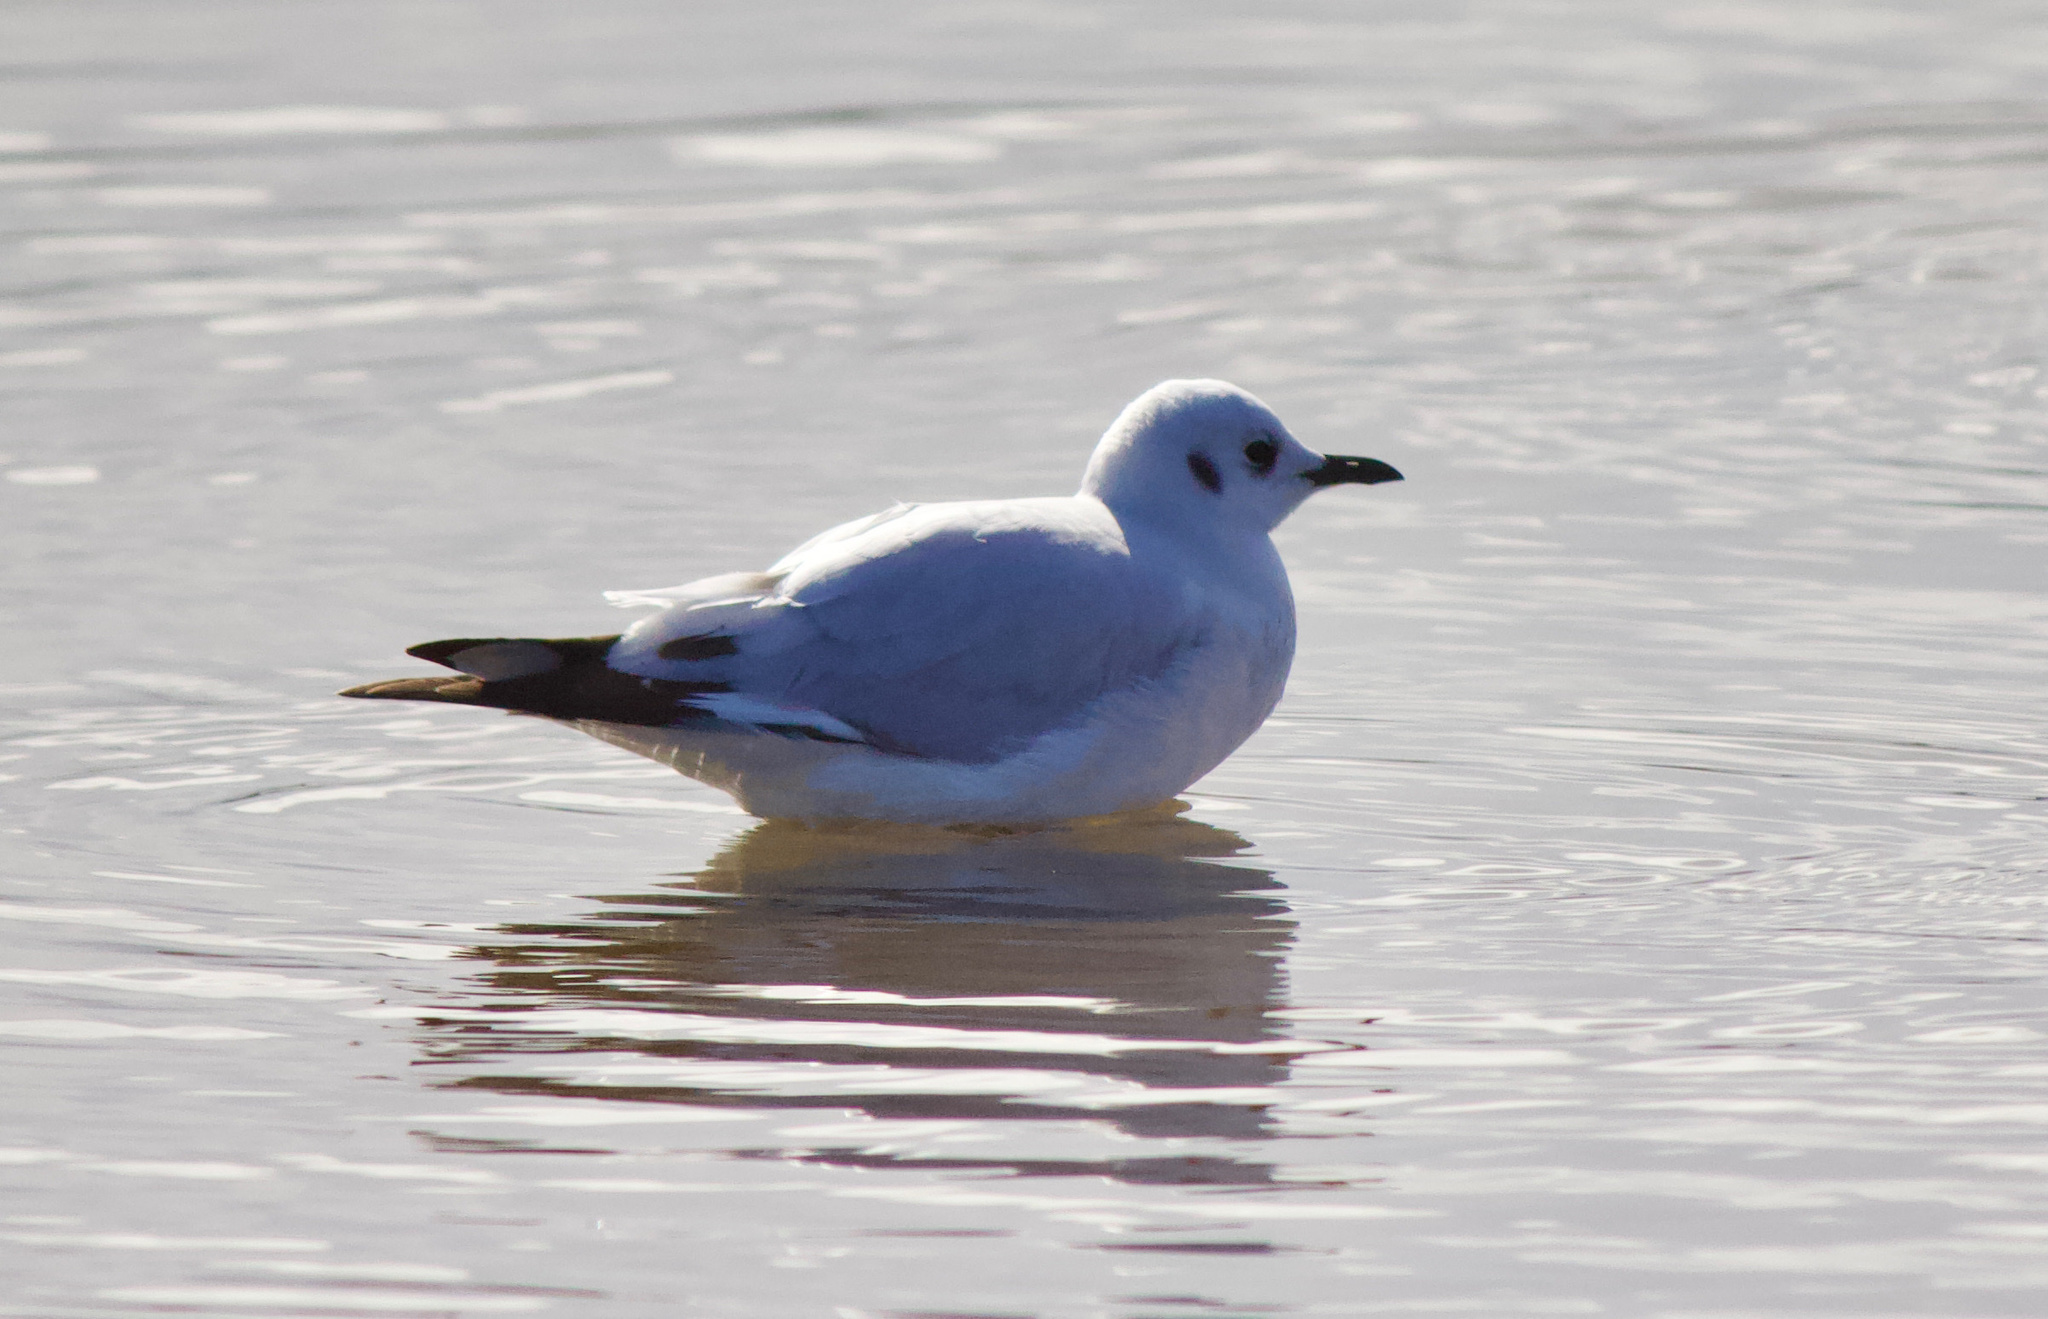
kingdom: Animalia
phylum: Chordata
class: Aves
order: Charadriiformes
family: Laridae
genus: Chroicocephalus
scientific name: Chroicocephalus serranus
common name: Andean gull
